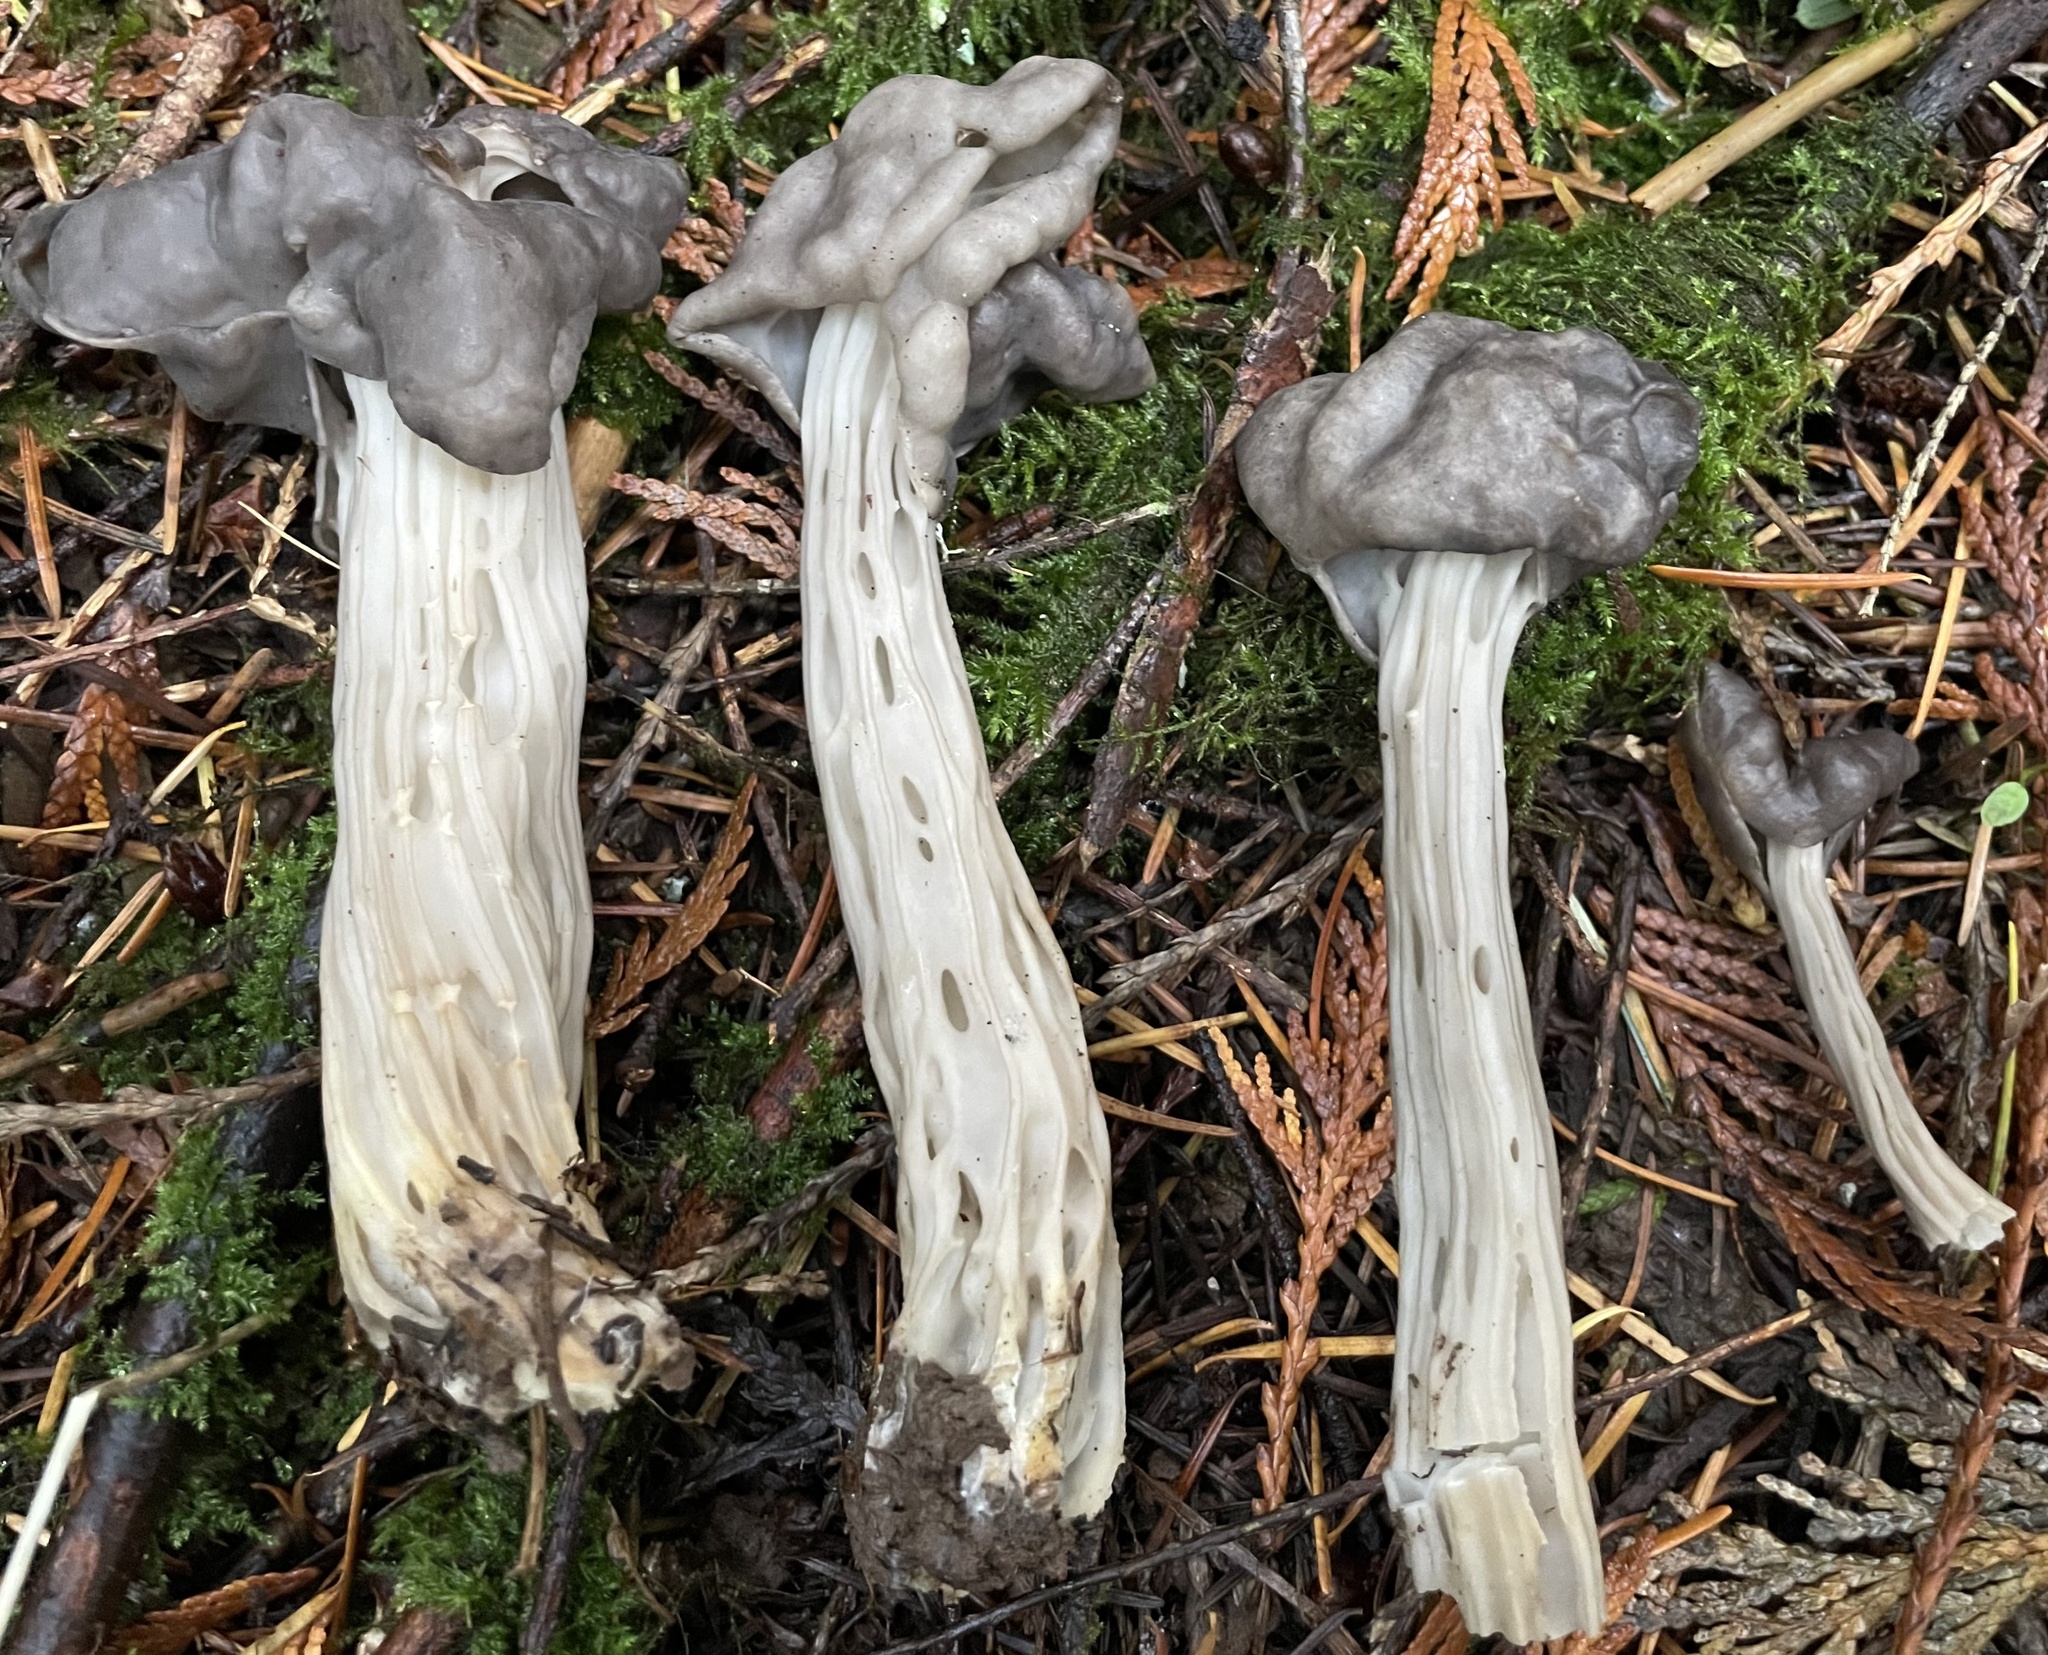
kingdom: Fungi
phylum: Ascomycota
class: Pezizomycetes
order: Pezizales
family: Helvellaceae
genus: Helvella
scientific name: Helvella vespertina
